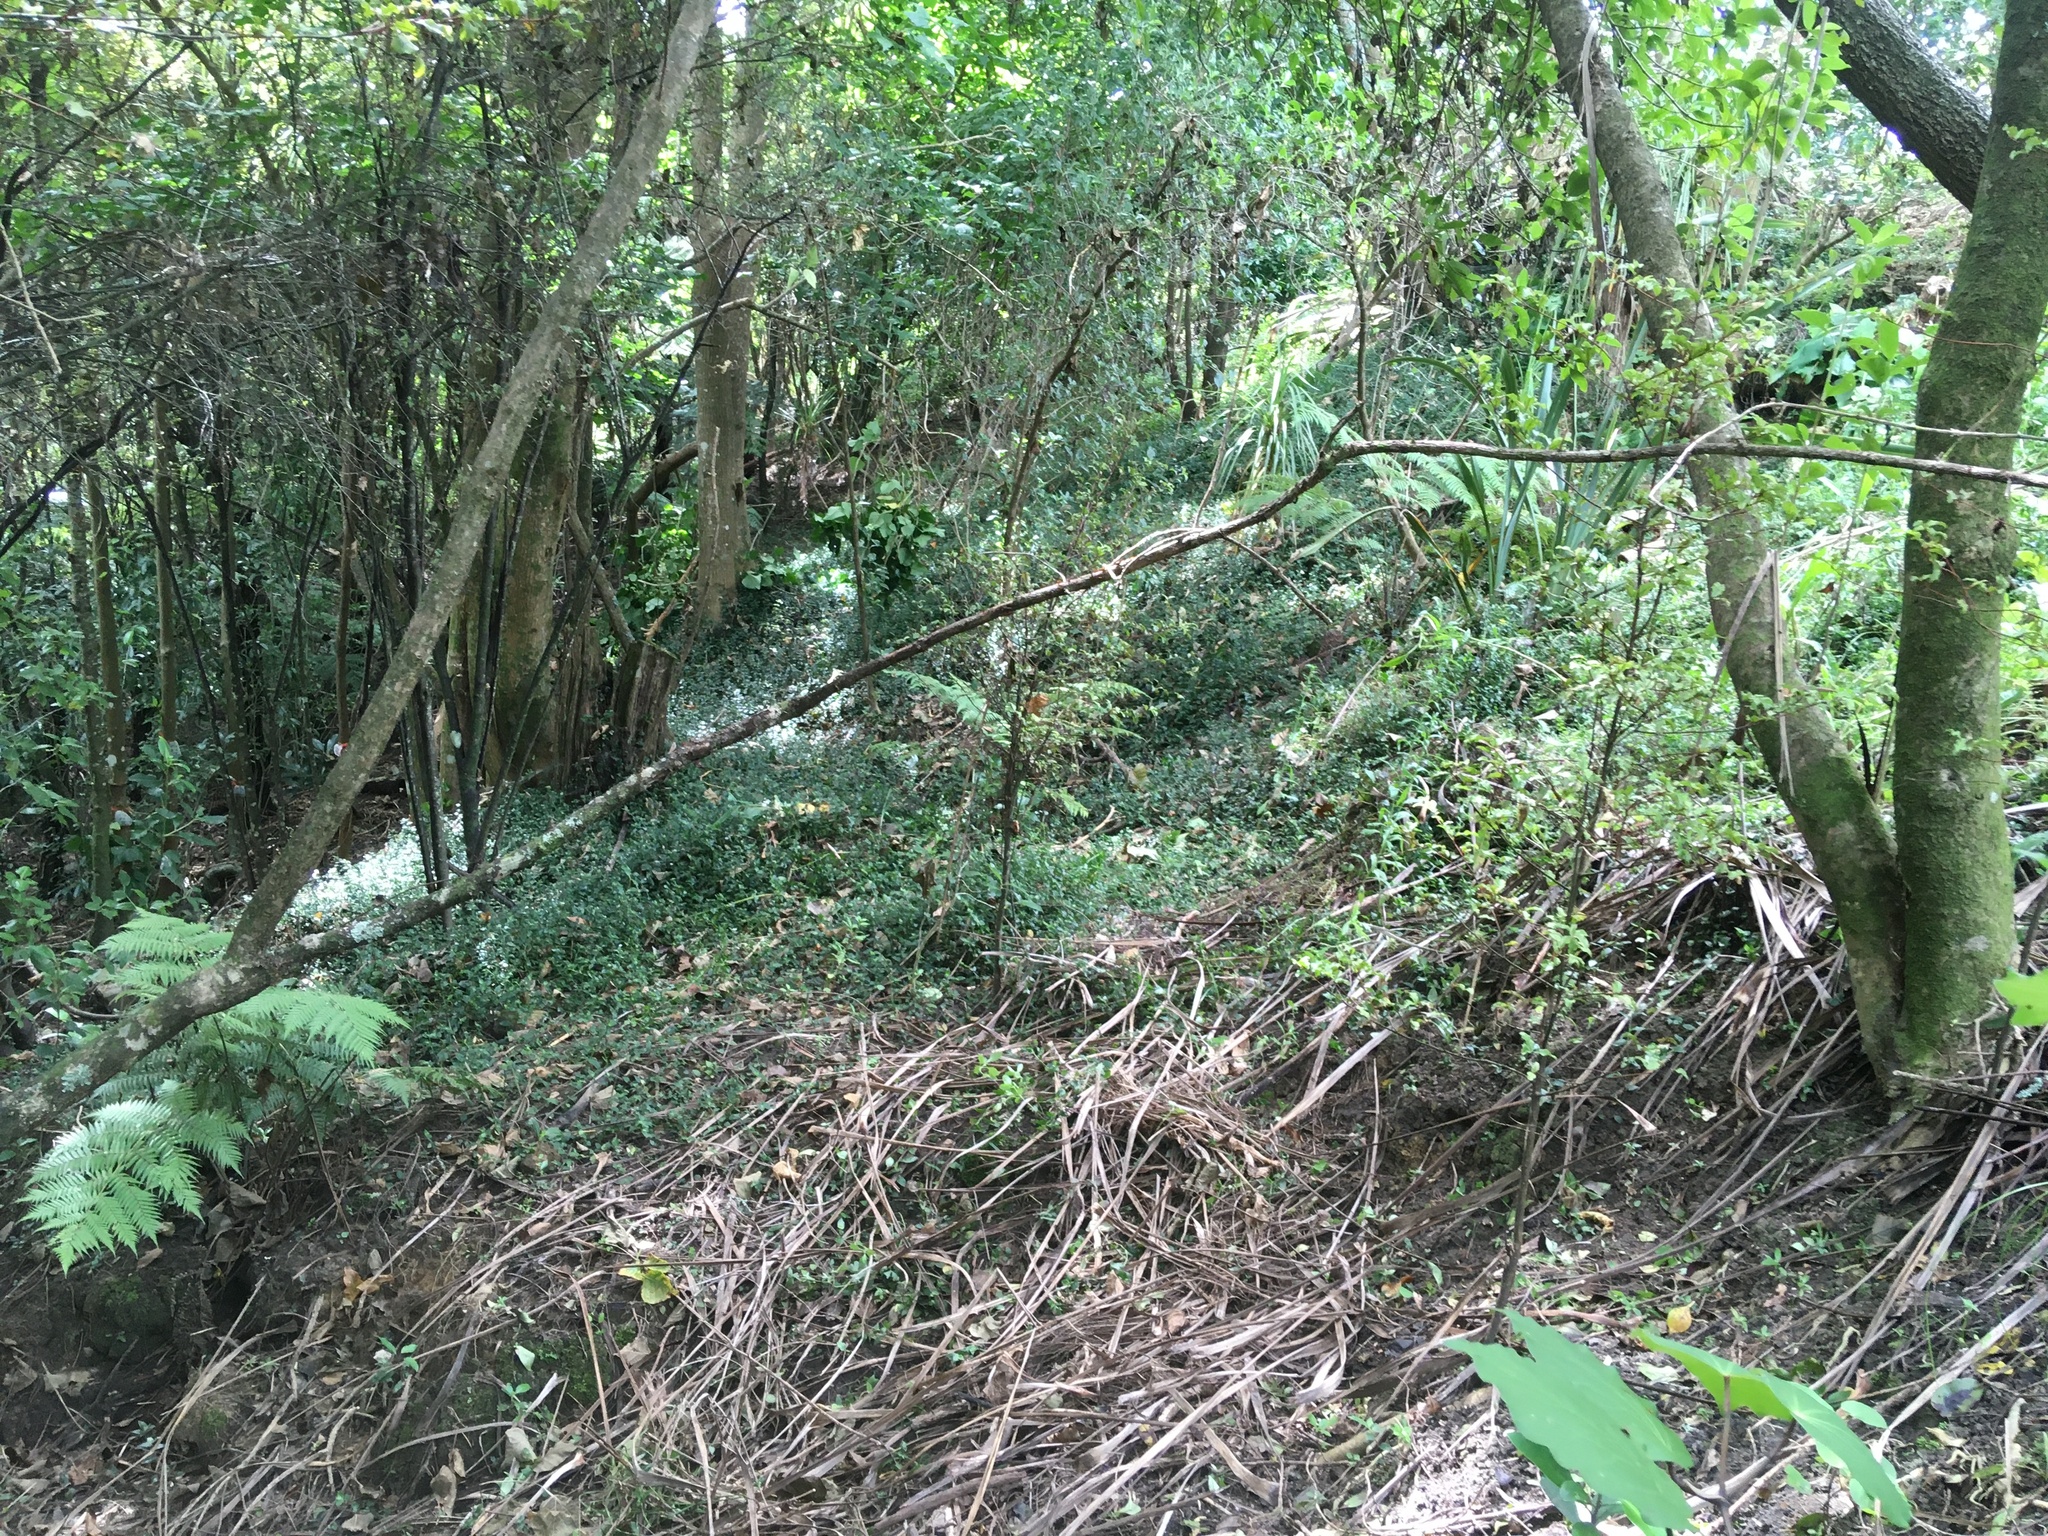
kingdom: Plantae
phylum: Tracheophyta
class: Liliopsida
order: Commelinales
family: Commelinaceae
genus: Tradescantia
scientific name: Tradescantia fluminensis
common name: Wandering-jew
